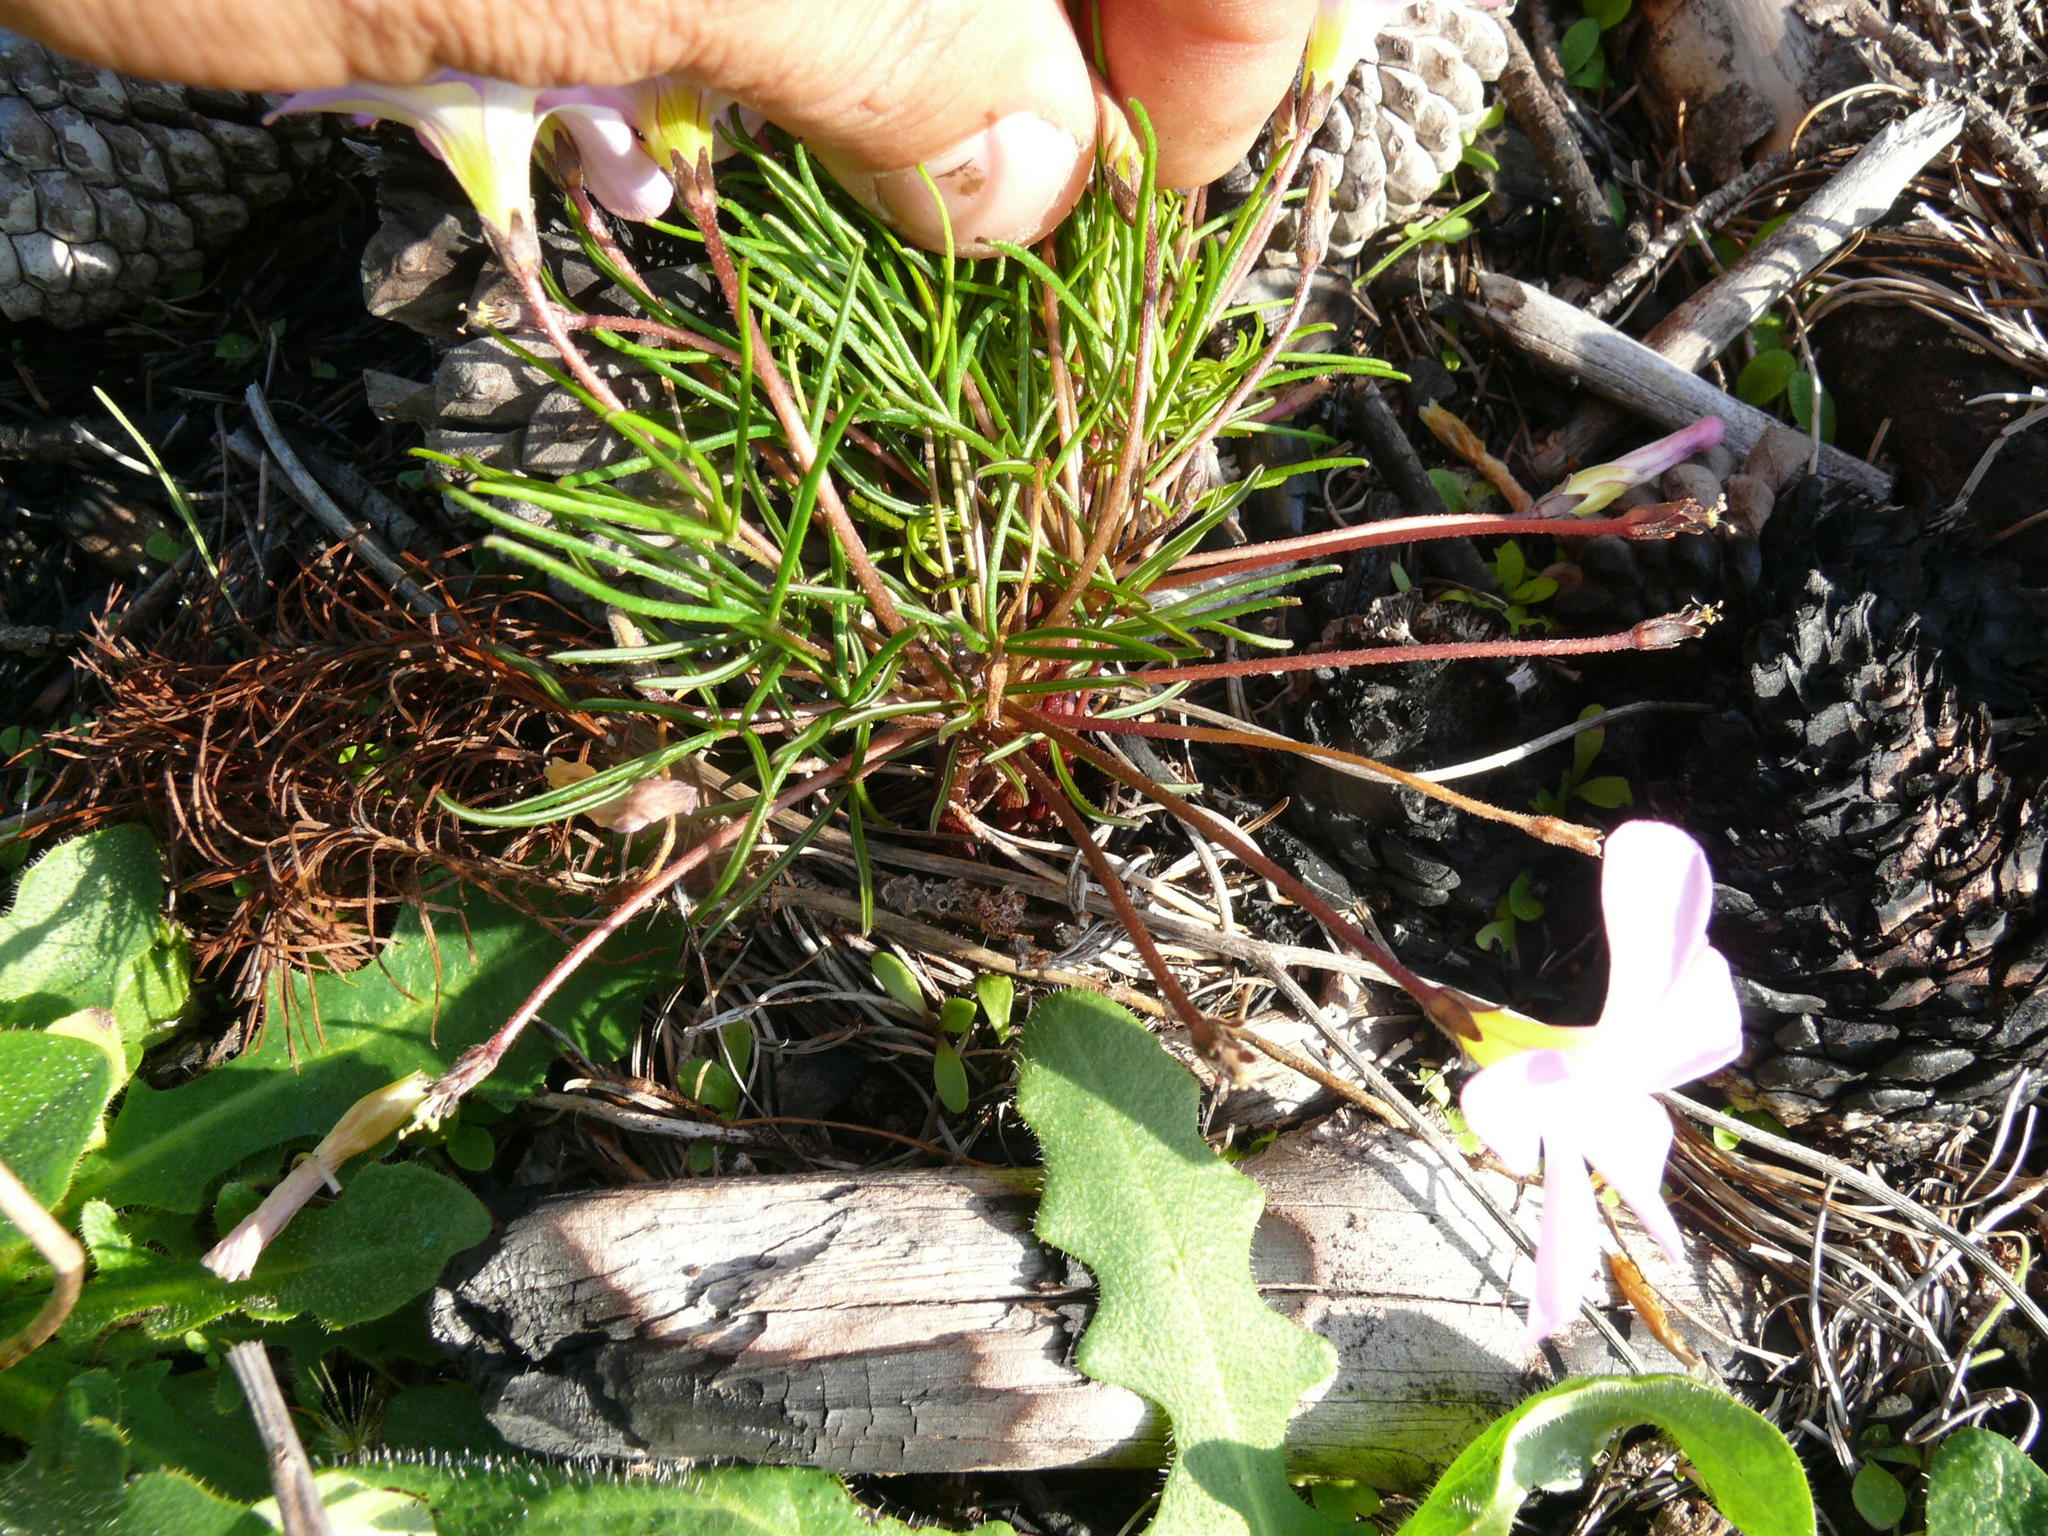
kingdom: Plantae
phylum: Tracheophyta
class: Magnoliopsida
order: Oxalidales
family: Oxalidaceae
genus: Oxalis
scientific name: Oxalis polyphylla
